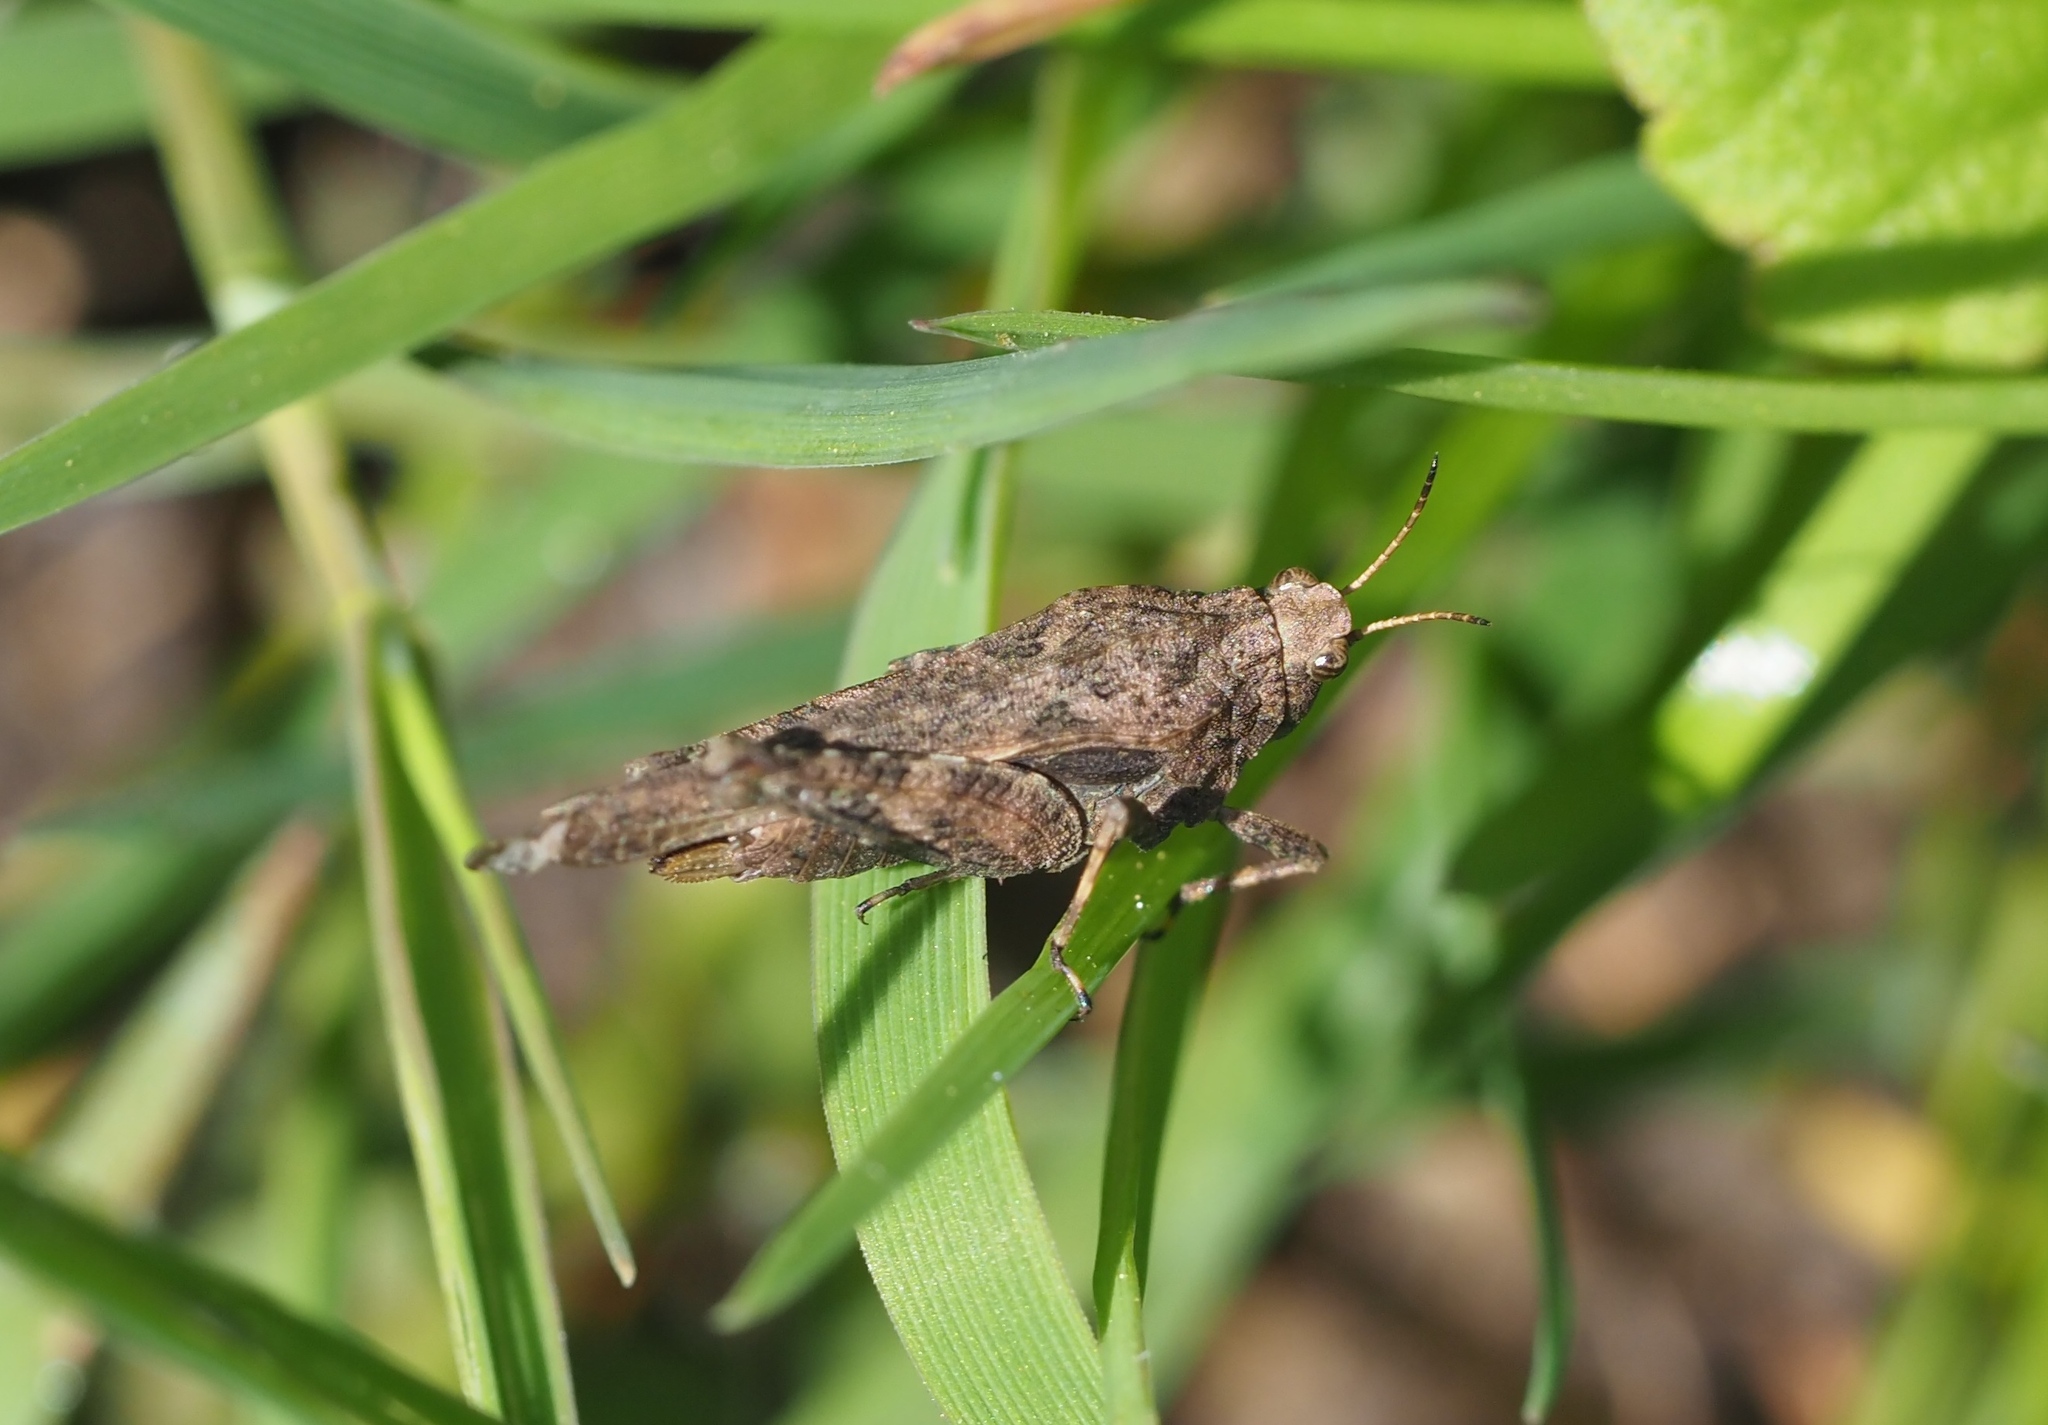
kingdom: Animalia
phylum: Arthropoda
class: Insecta
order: Orthoptera
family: Tetrigidae
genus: Tetrix
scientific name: Tetrix subulata
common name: Slender ground-hopper
